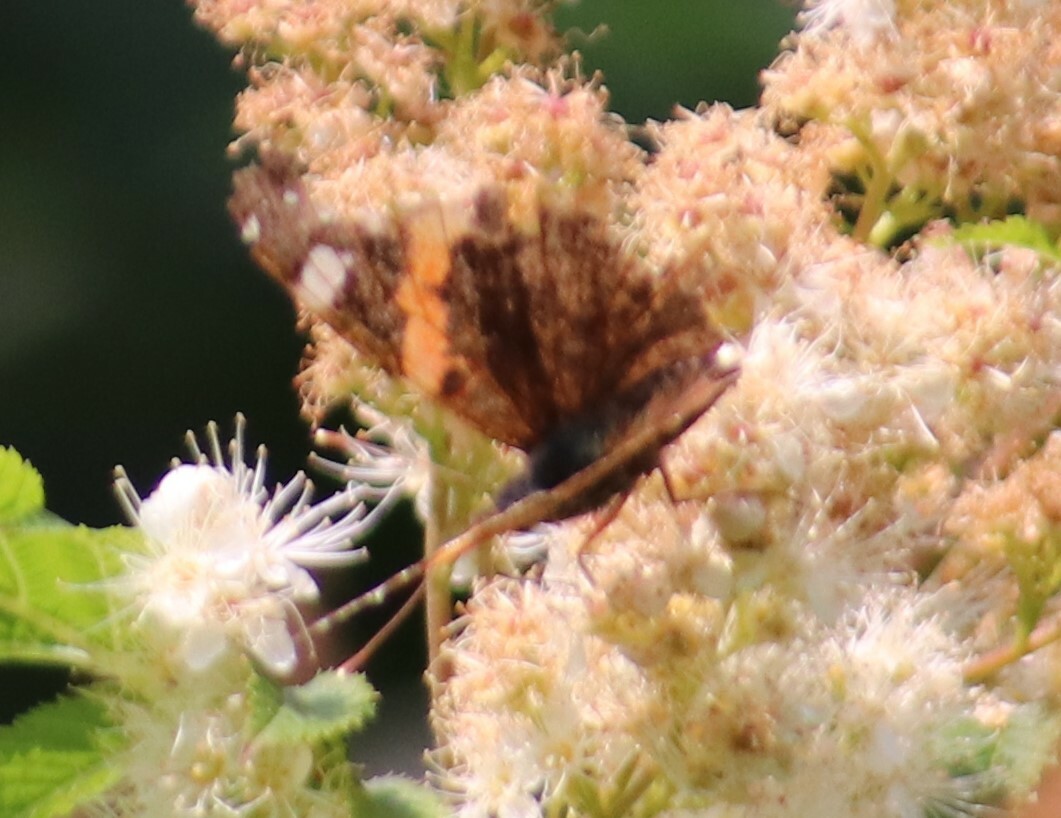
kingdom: Animalia
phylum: Arthropoda
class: Insecta
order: Lepidoptera
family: Nymphalidae
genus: Vanessa
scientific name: Vanessa atalanta
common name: Red admiral
